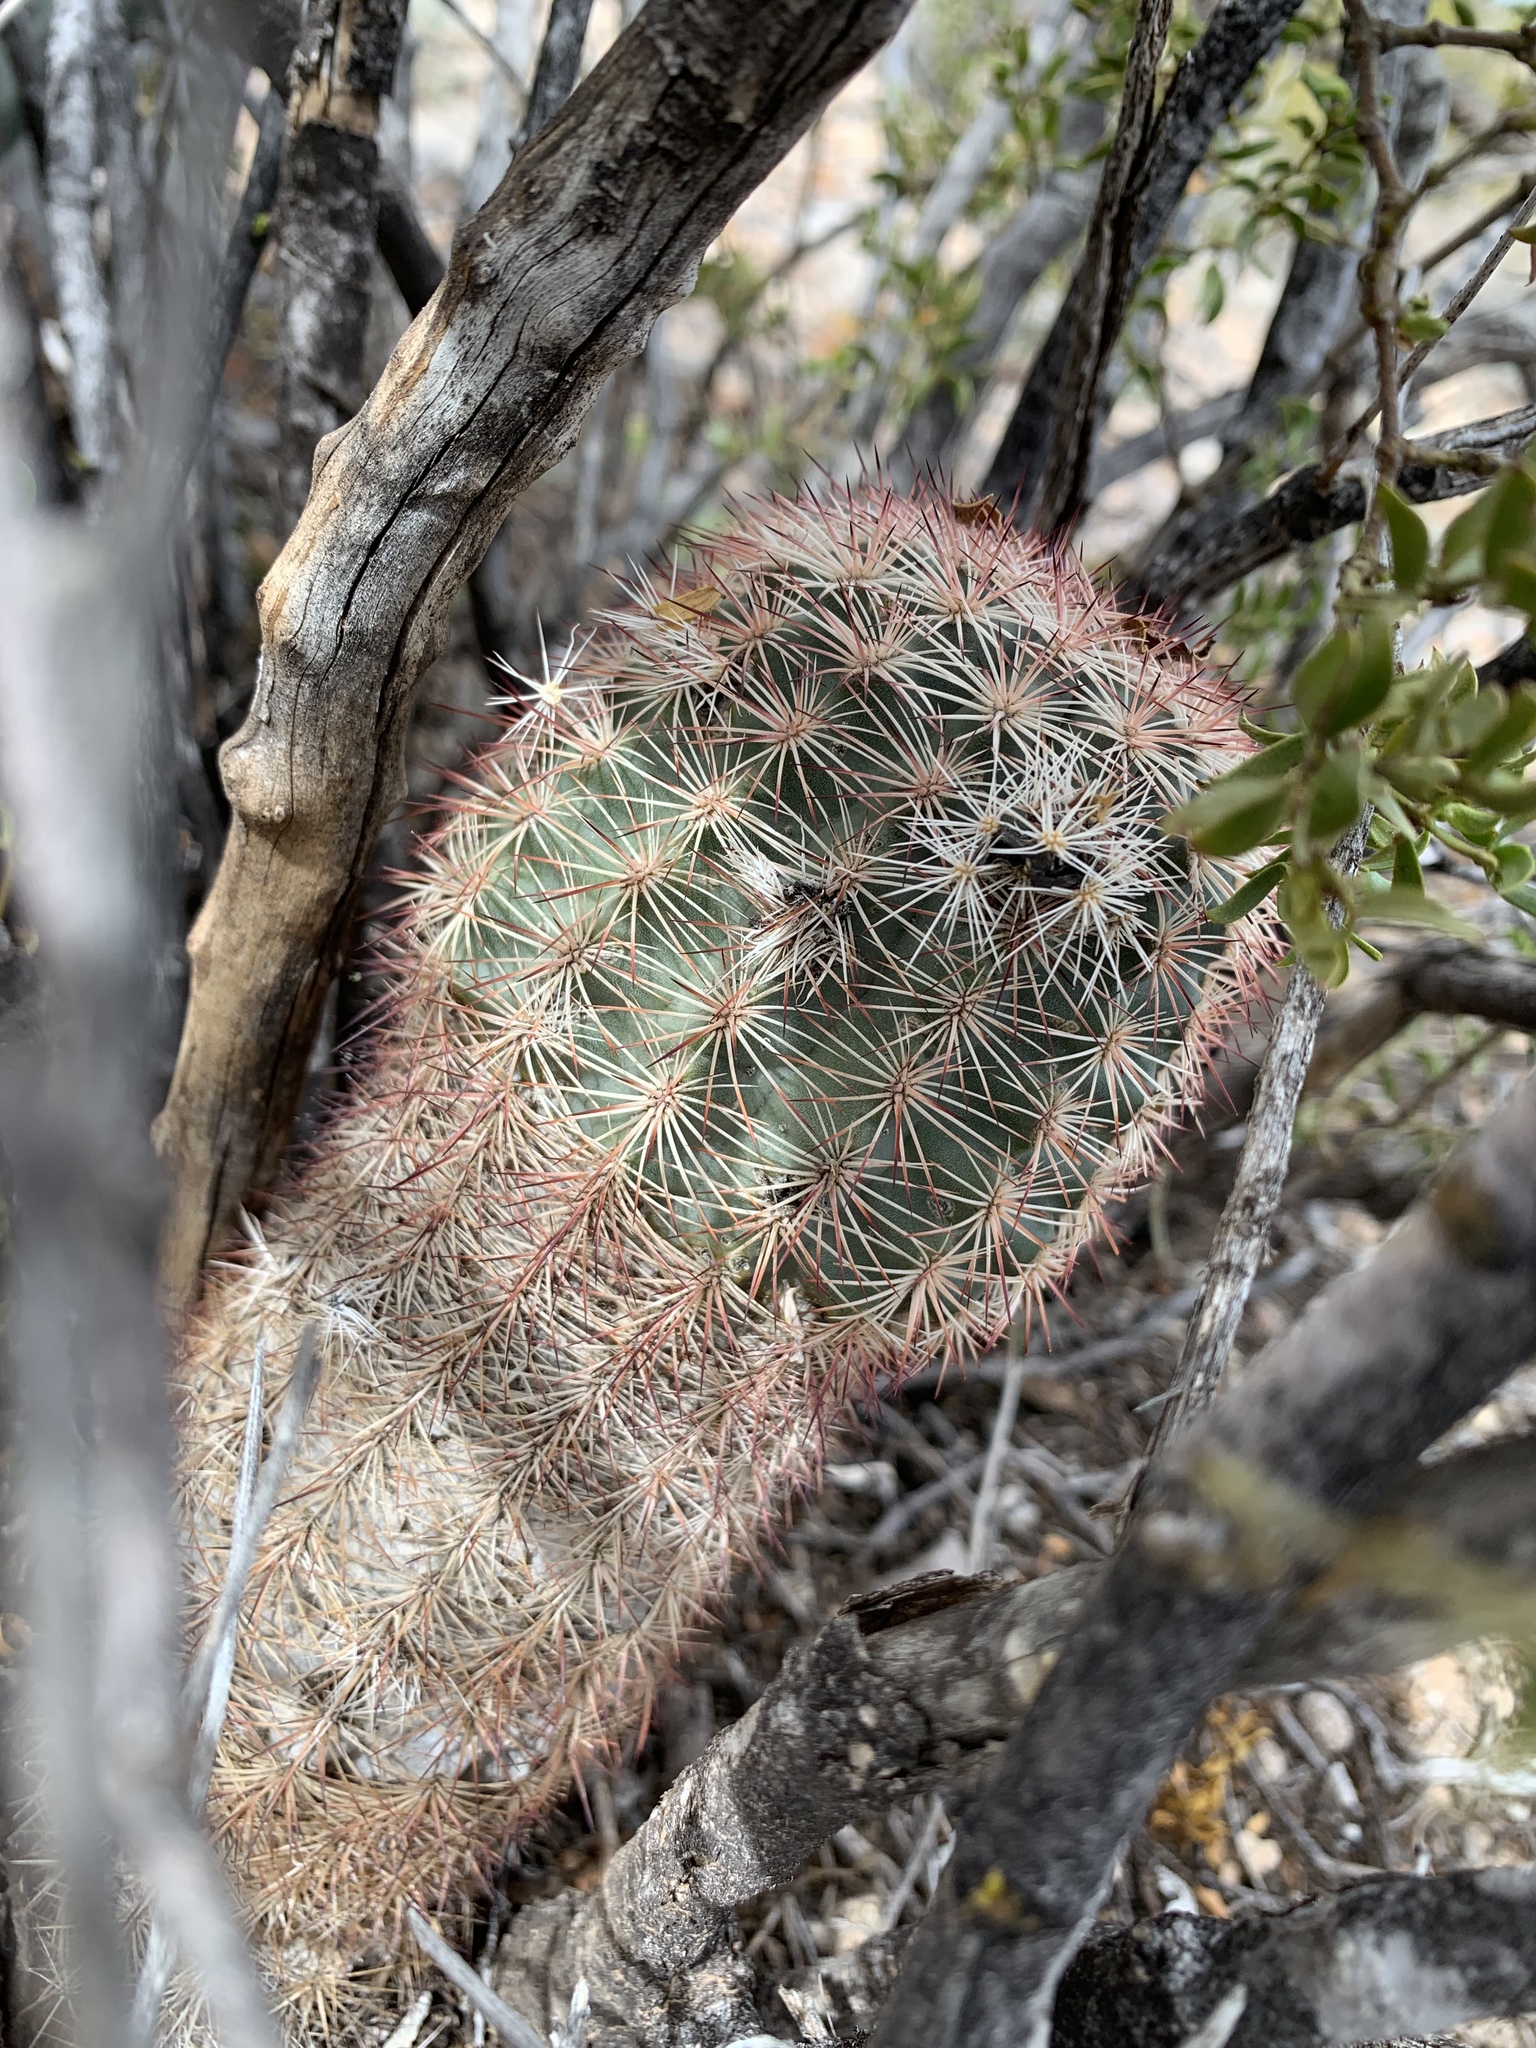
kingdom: Plantae
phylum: Tracheophyta
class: Magnoliopsida
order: Caryophyllales
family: Cactaceae
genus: Echinocereus
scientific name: Echinocereus dasyacanthus
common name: Spiny hedgehog cactus
